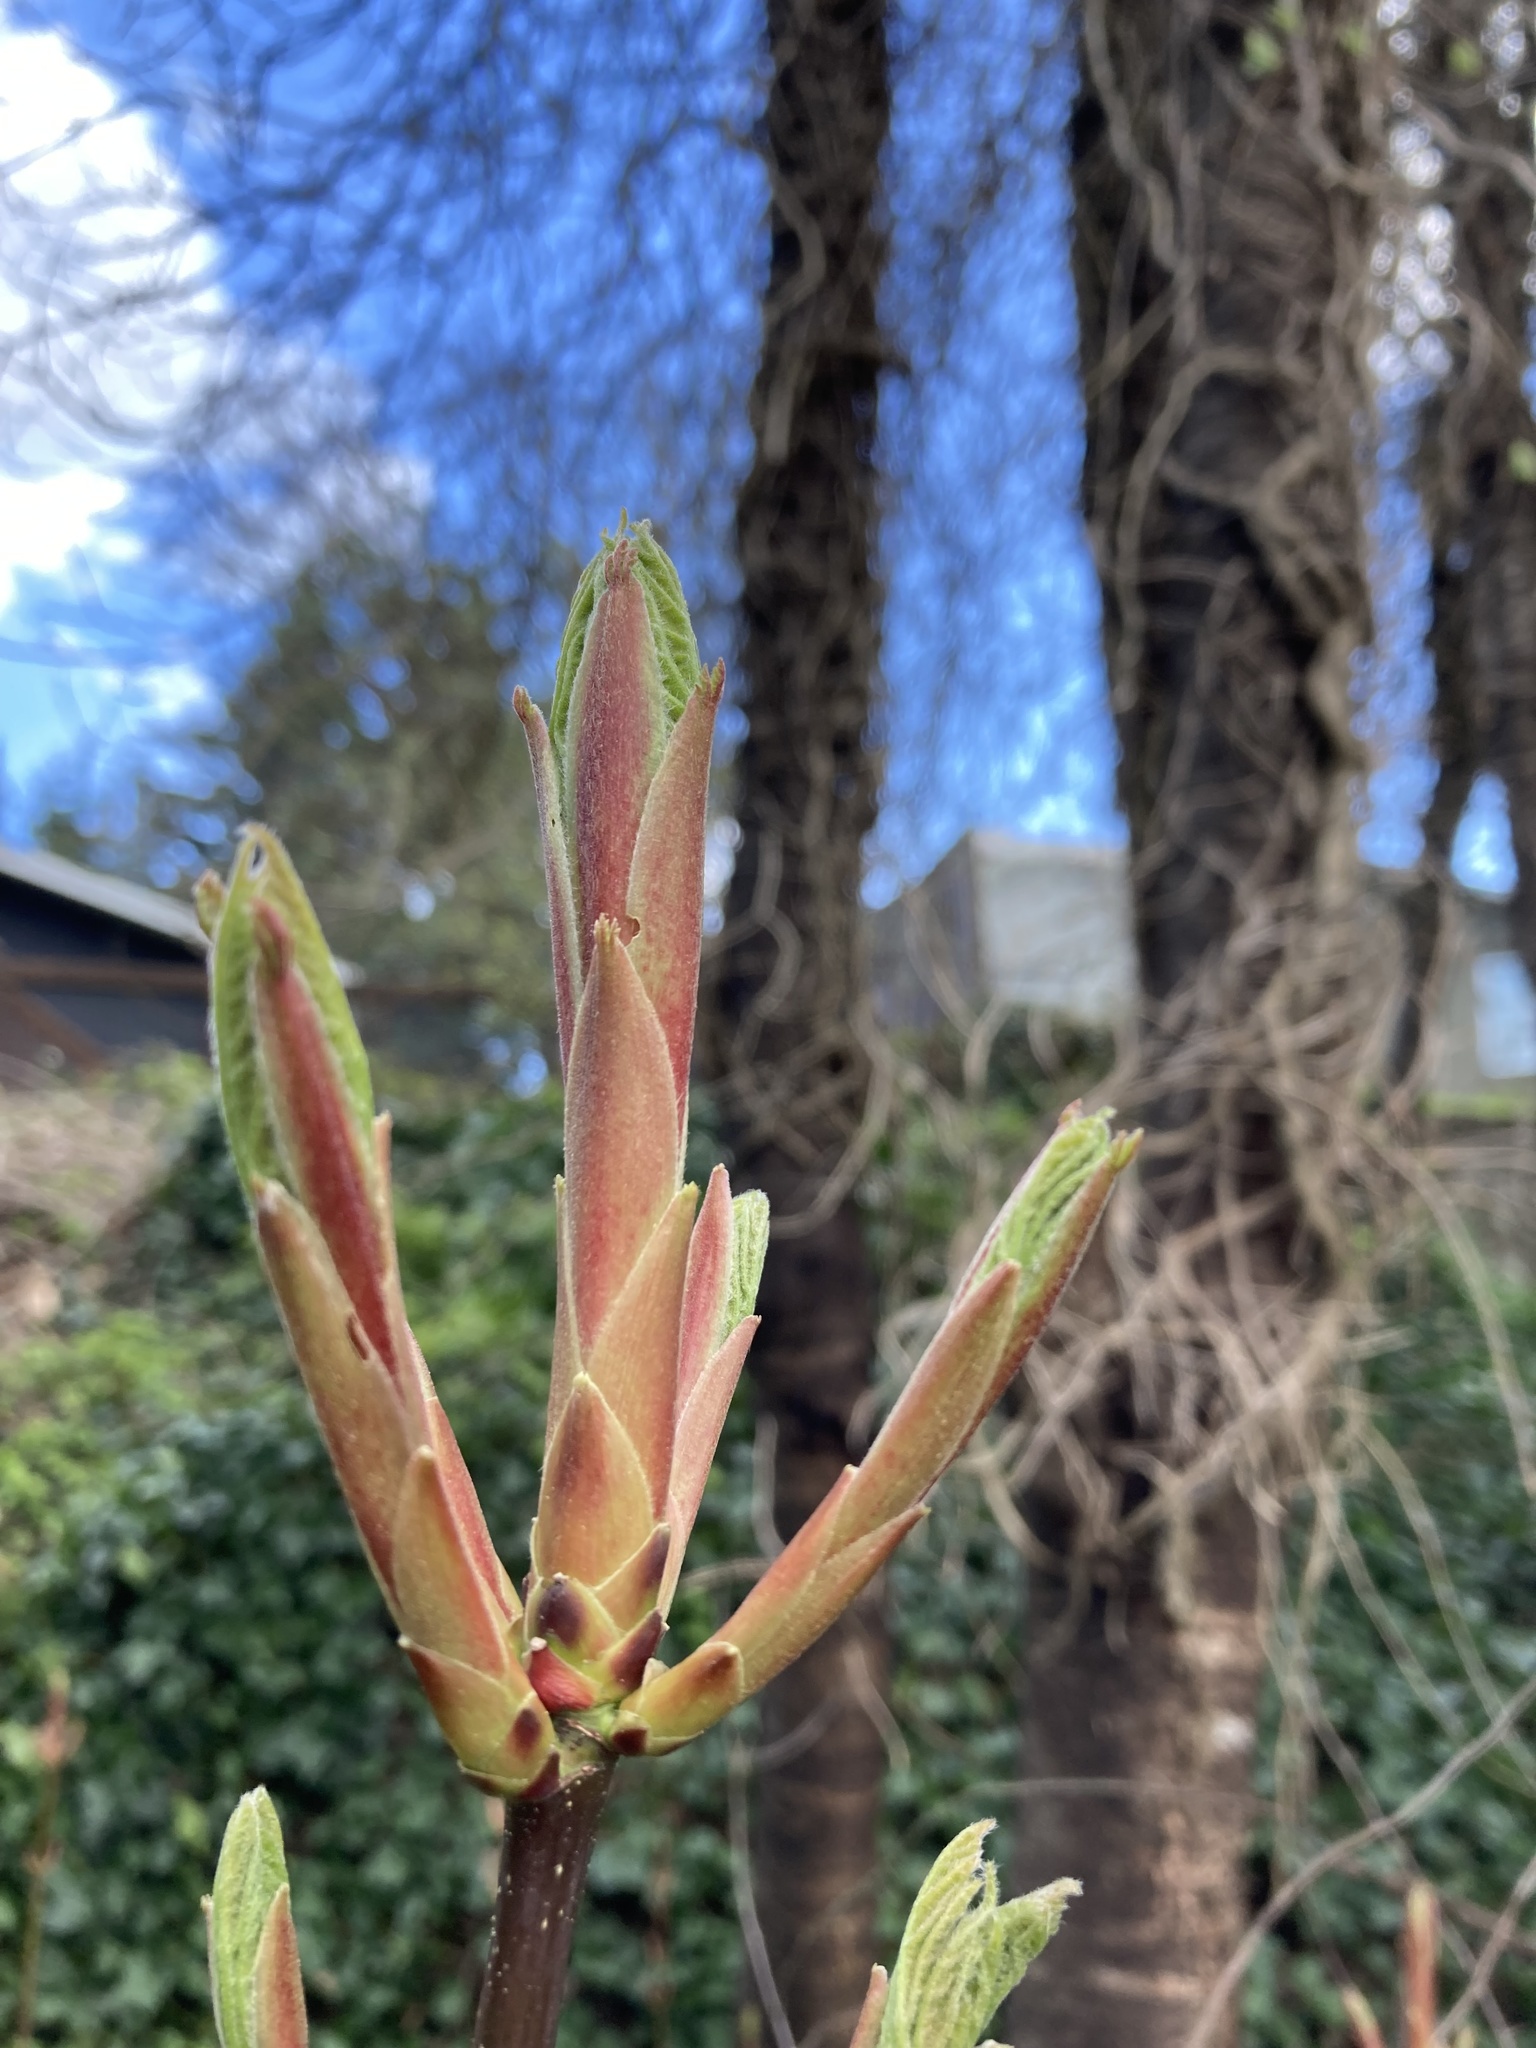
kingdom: Plantae
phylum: Tracheophyta
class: Magnoliopsida
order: Sapindales
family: Sapindaceae
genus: Acer
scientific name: Acer macrophyllum
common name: Oregon maple
